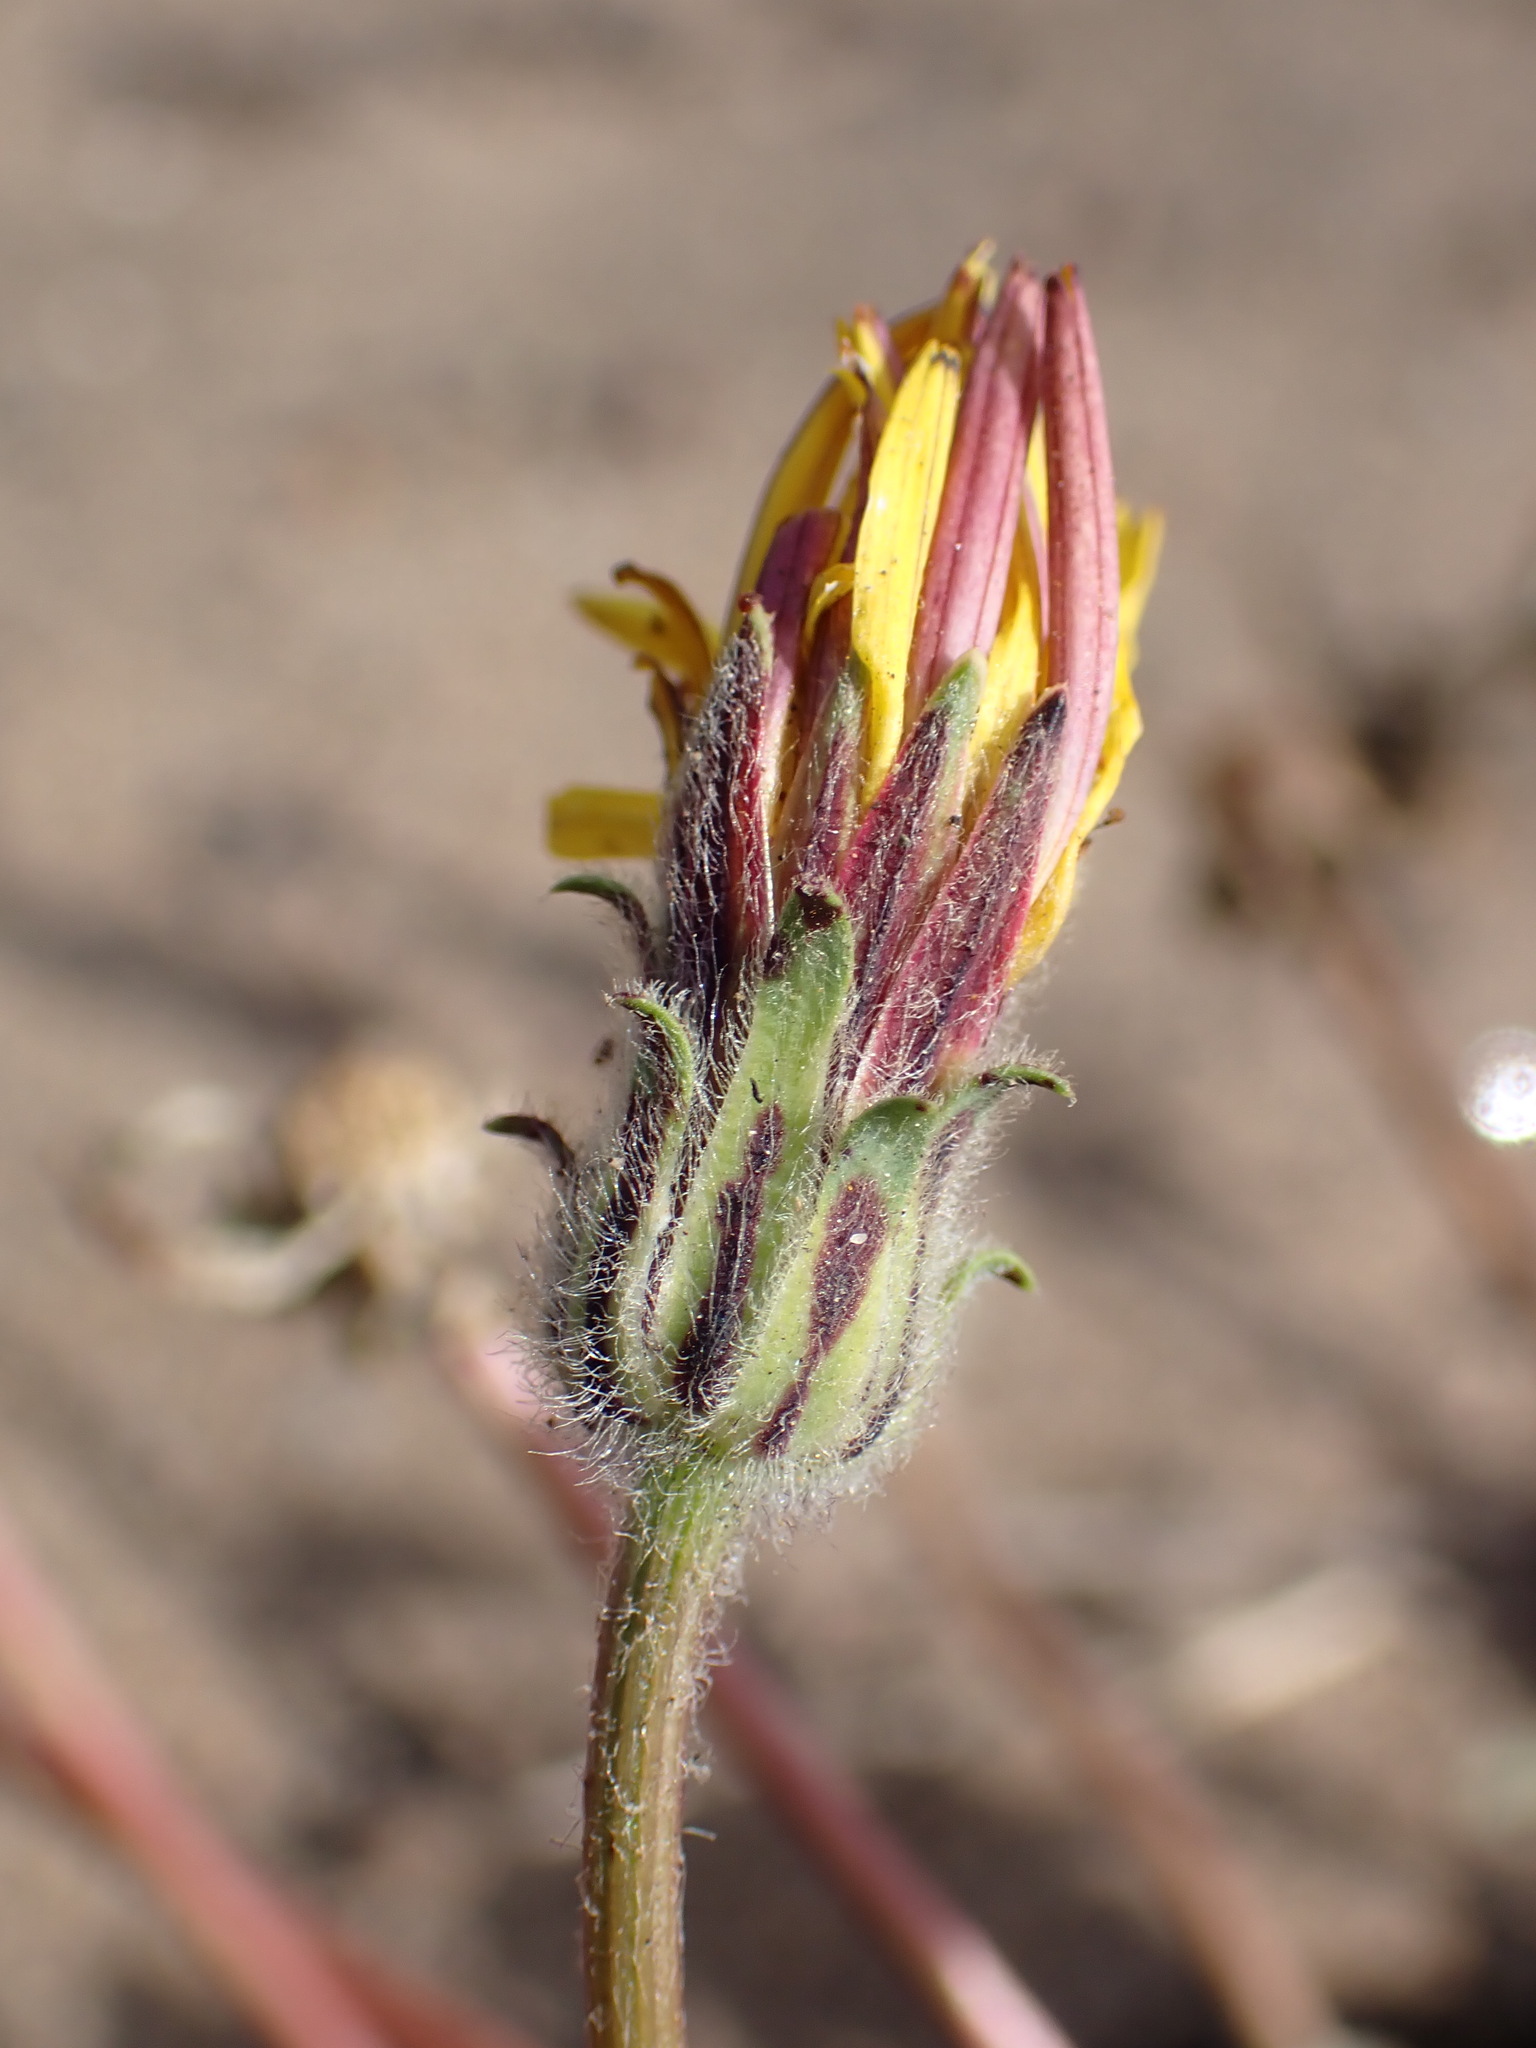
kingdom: Plantae
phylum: Tracheophyta
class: Magnoliopsida
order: Asterales
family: Asteraceae
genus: Agoseris
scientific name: Agoseris apargioides
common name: Point reyes agoseris
